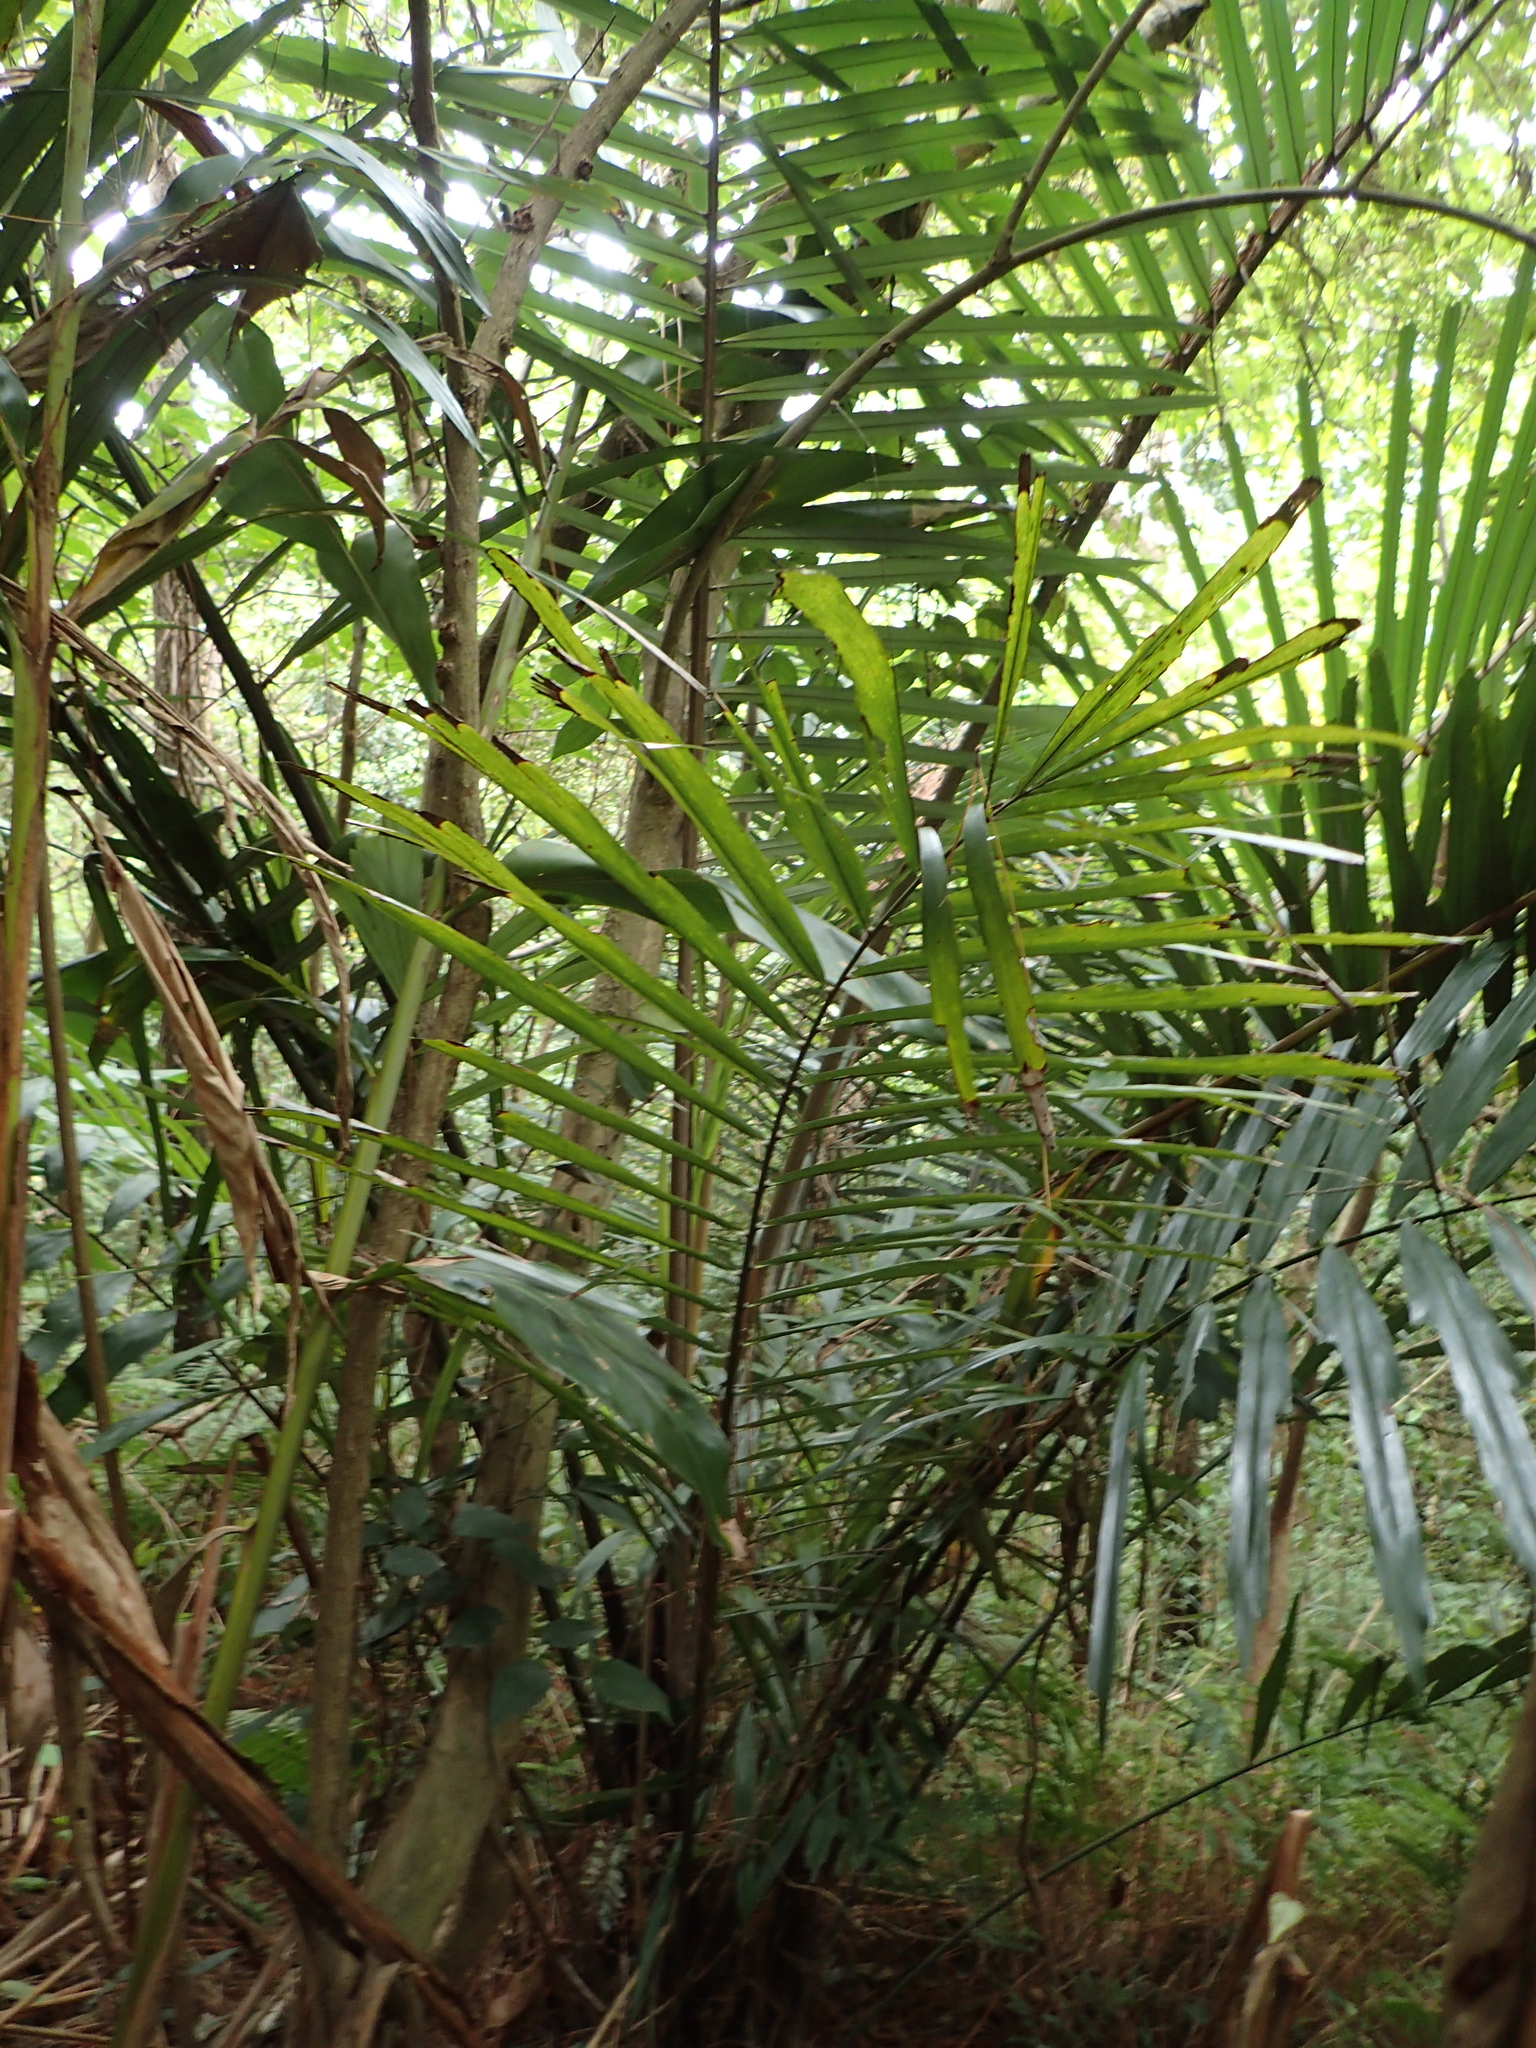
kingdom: Plantae
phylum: Tracheophyta
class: Liliopsida
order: Arecales
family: Arecaceae
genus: Arenga
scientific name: Arenga engleri
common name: Formosan sugar palm
